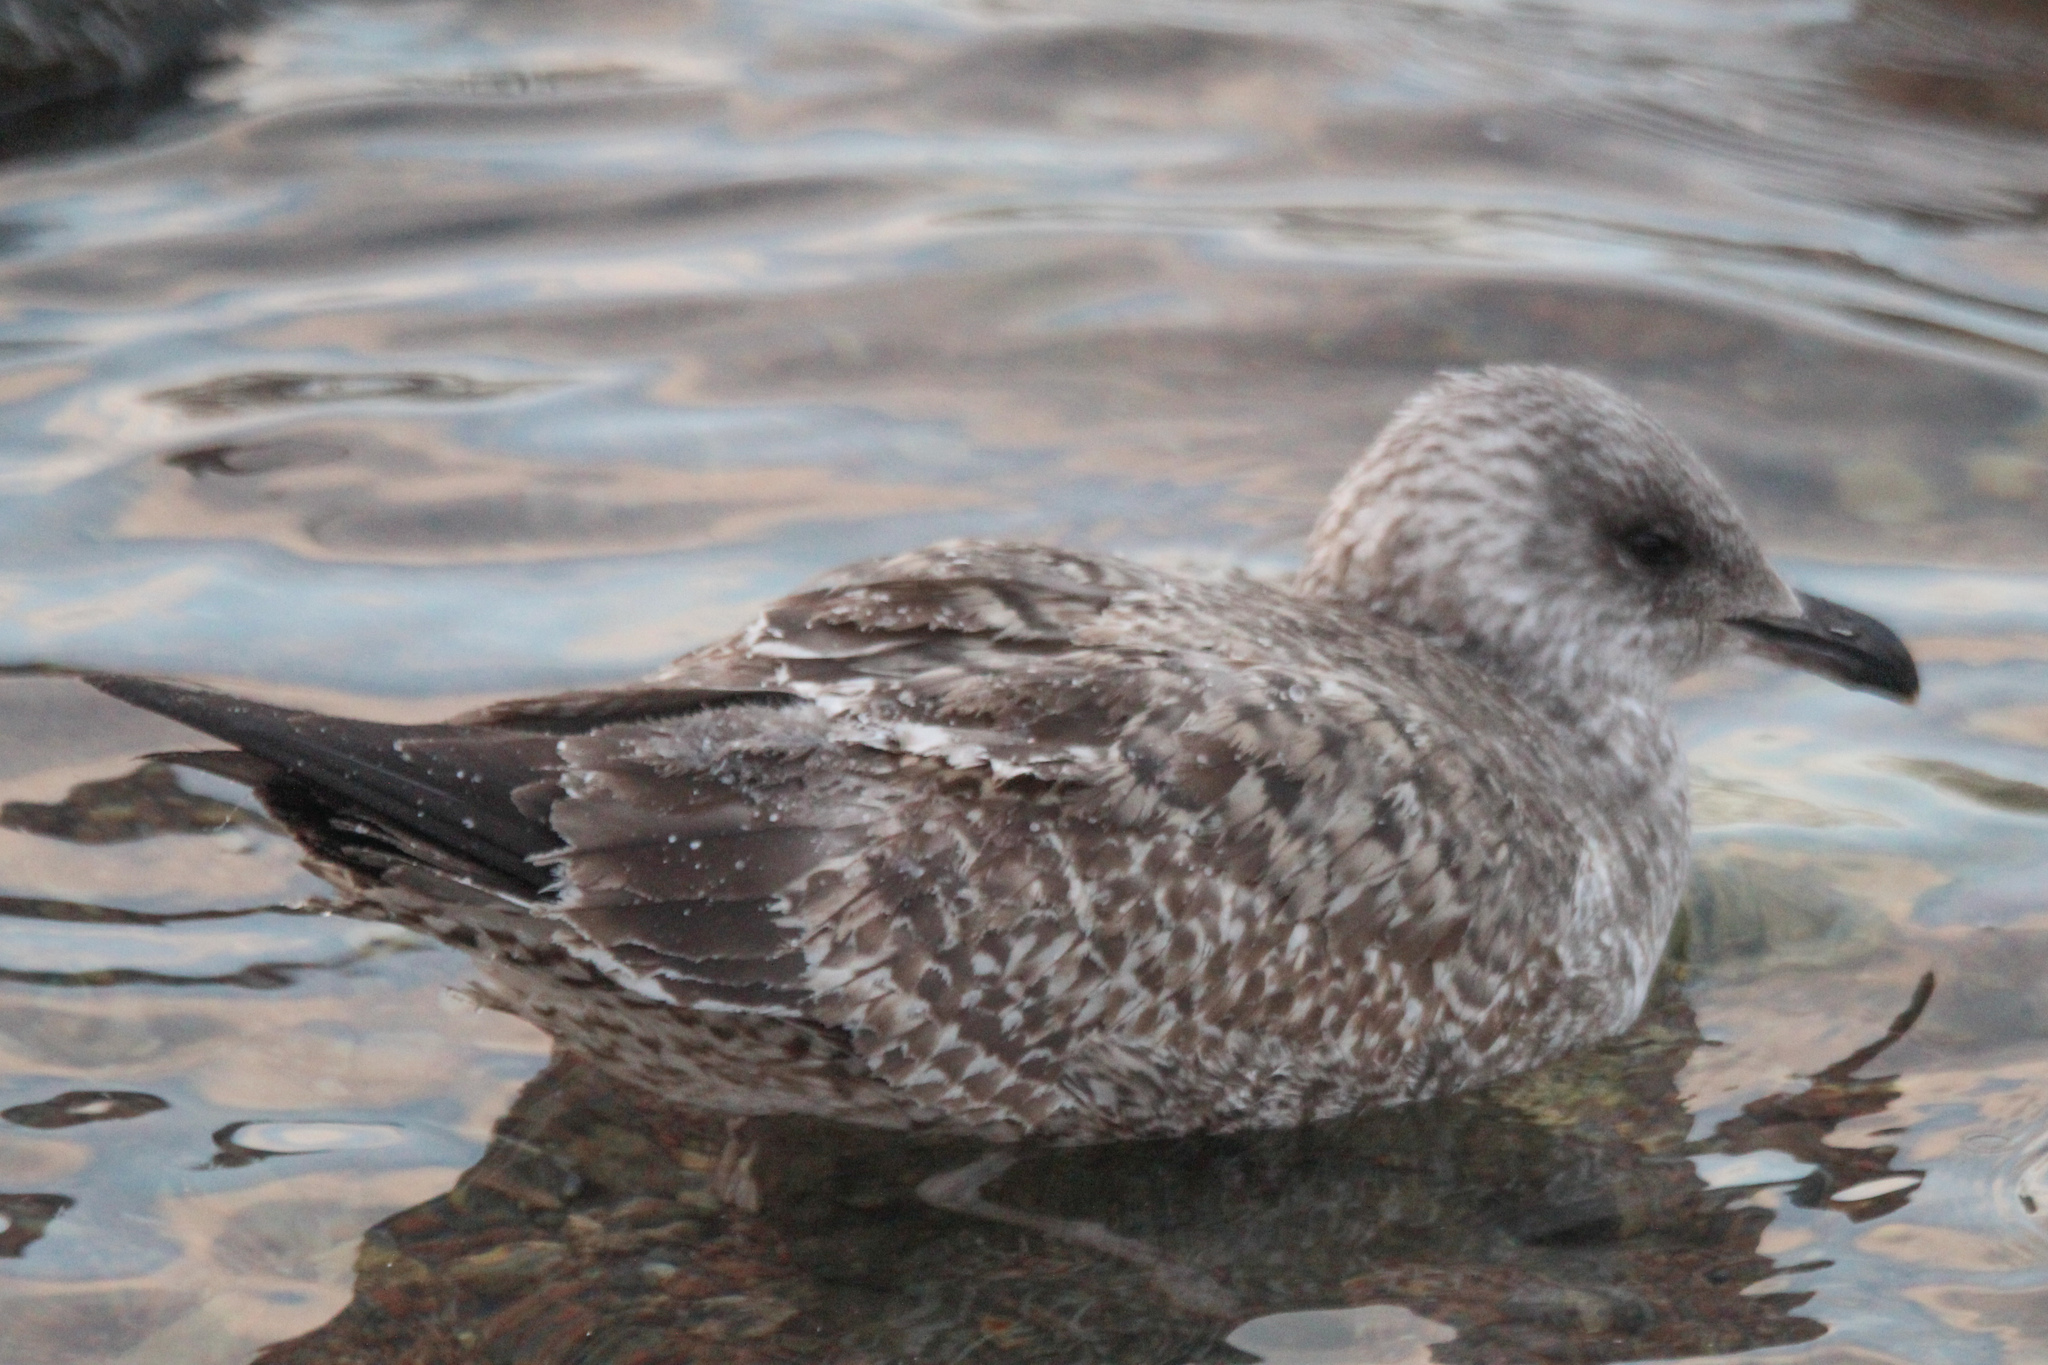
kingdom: Animalia
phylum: Chordata
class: Aves
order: Charadriiformes
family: Laridae
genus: Larus
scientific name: Larus argentatus
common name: Herring gull
